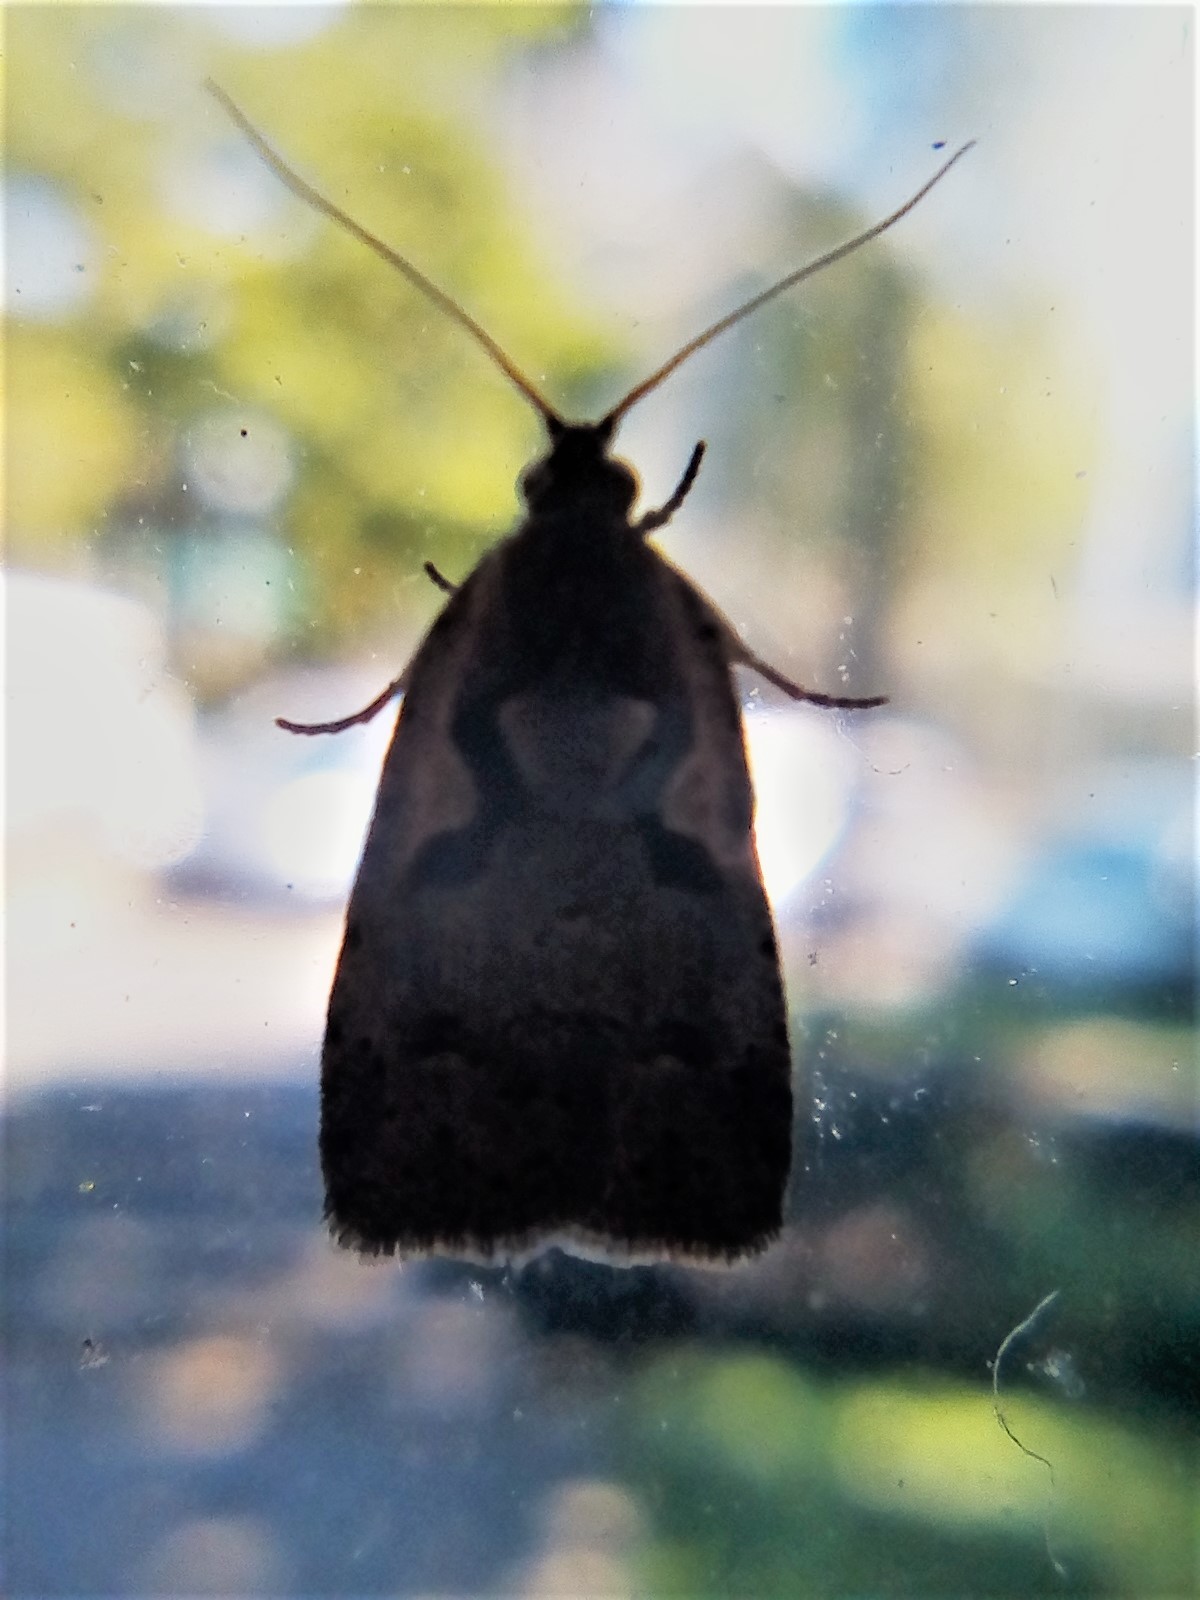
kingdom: Animalia
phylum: Arthropoda
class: Insecta
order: Lepidoptera
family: Tortricidae
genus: Cnephasia
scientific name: Cnephasia jactatana
